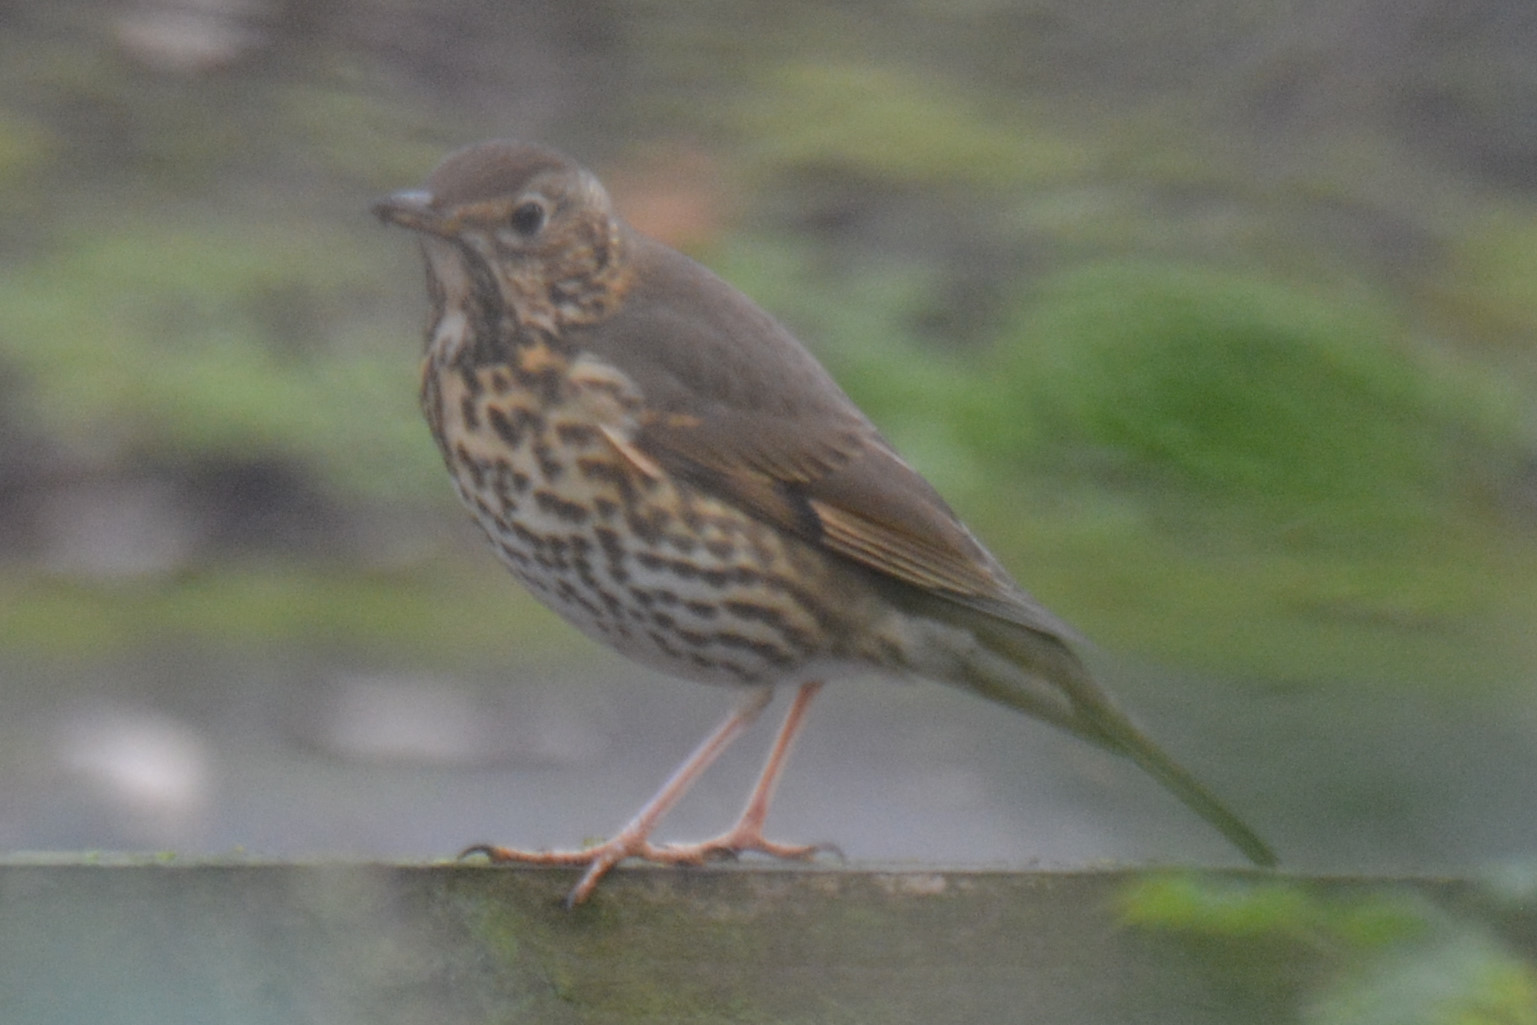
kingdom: Animalia
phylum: Chordata
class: Aves
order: Passeriformes
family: Turdidae
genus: Turdus
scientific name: Turdus philomelos
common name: Song thrush
